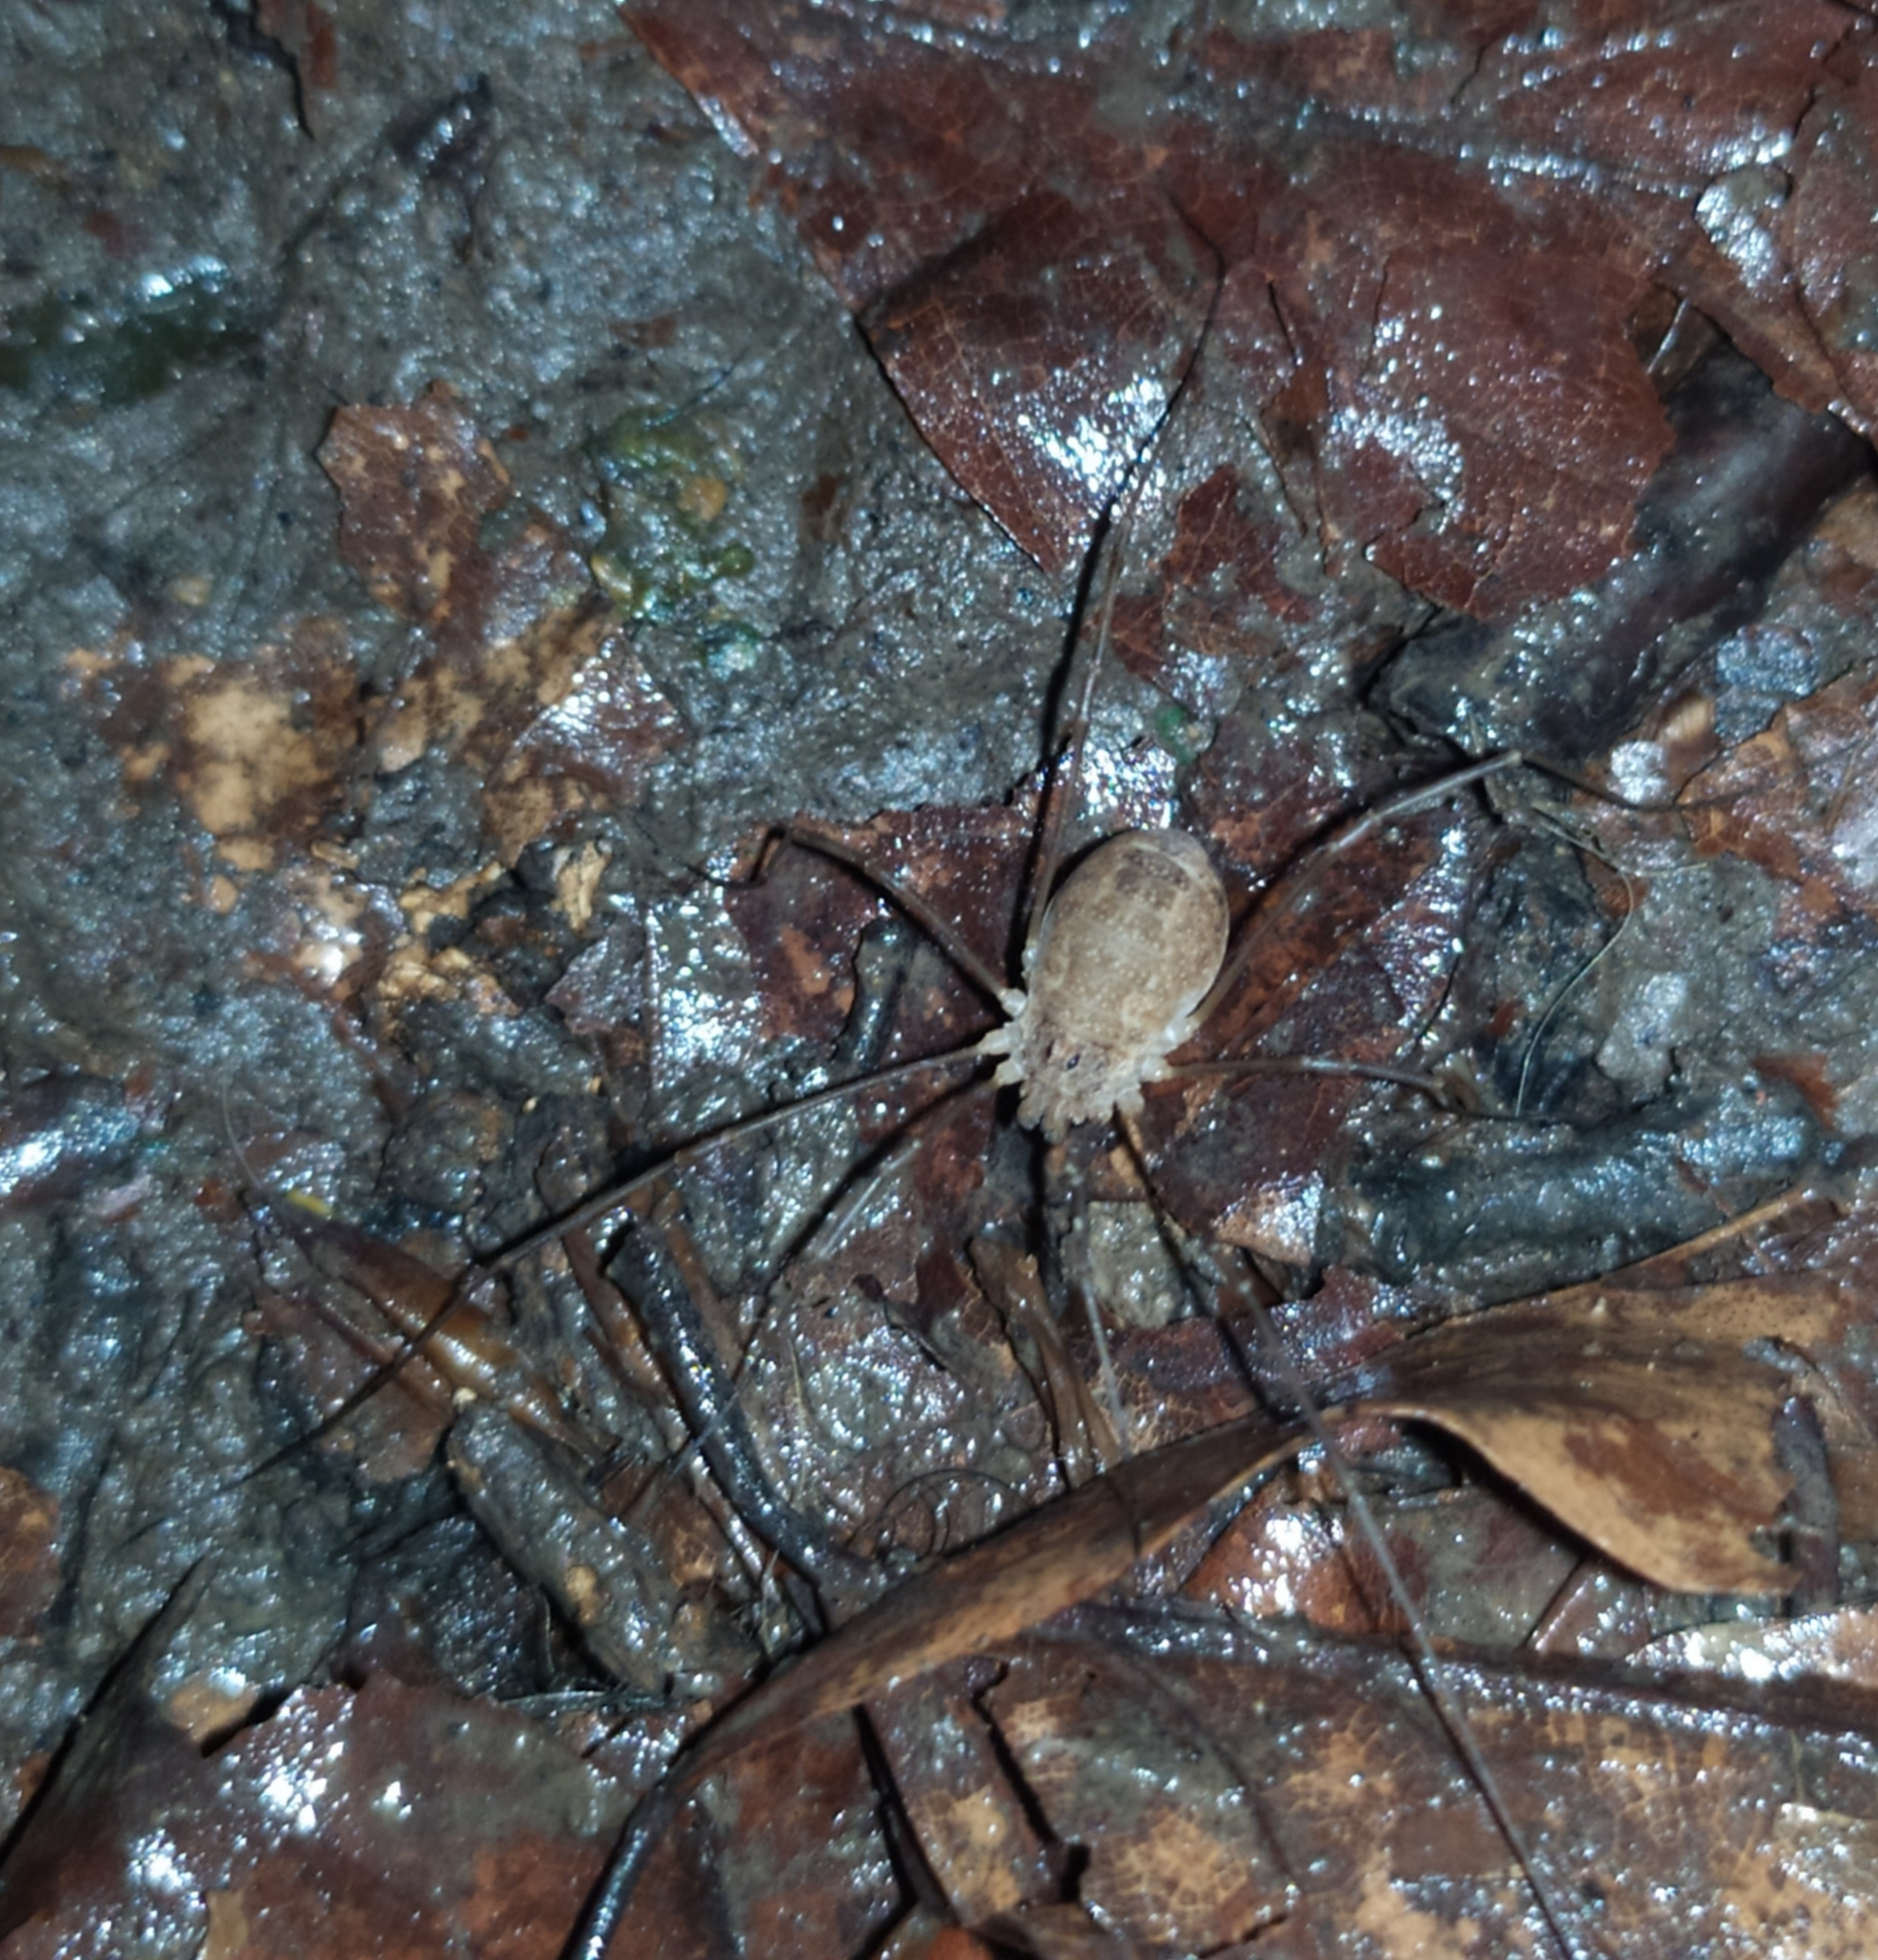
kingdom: Animalia
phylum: Arthropoda
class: Arachnida
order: Opiliones
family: Phalangiidae
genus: Rilaena
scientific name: Rilaena triangularis
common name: Spring harvestman
